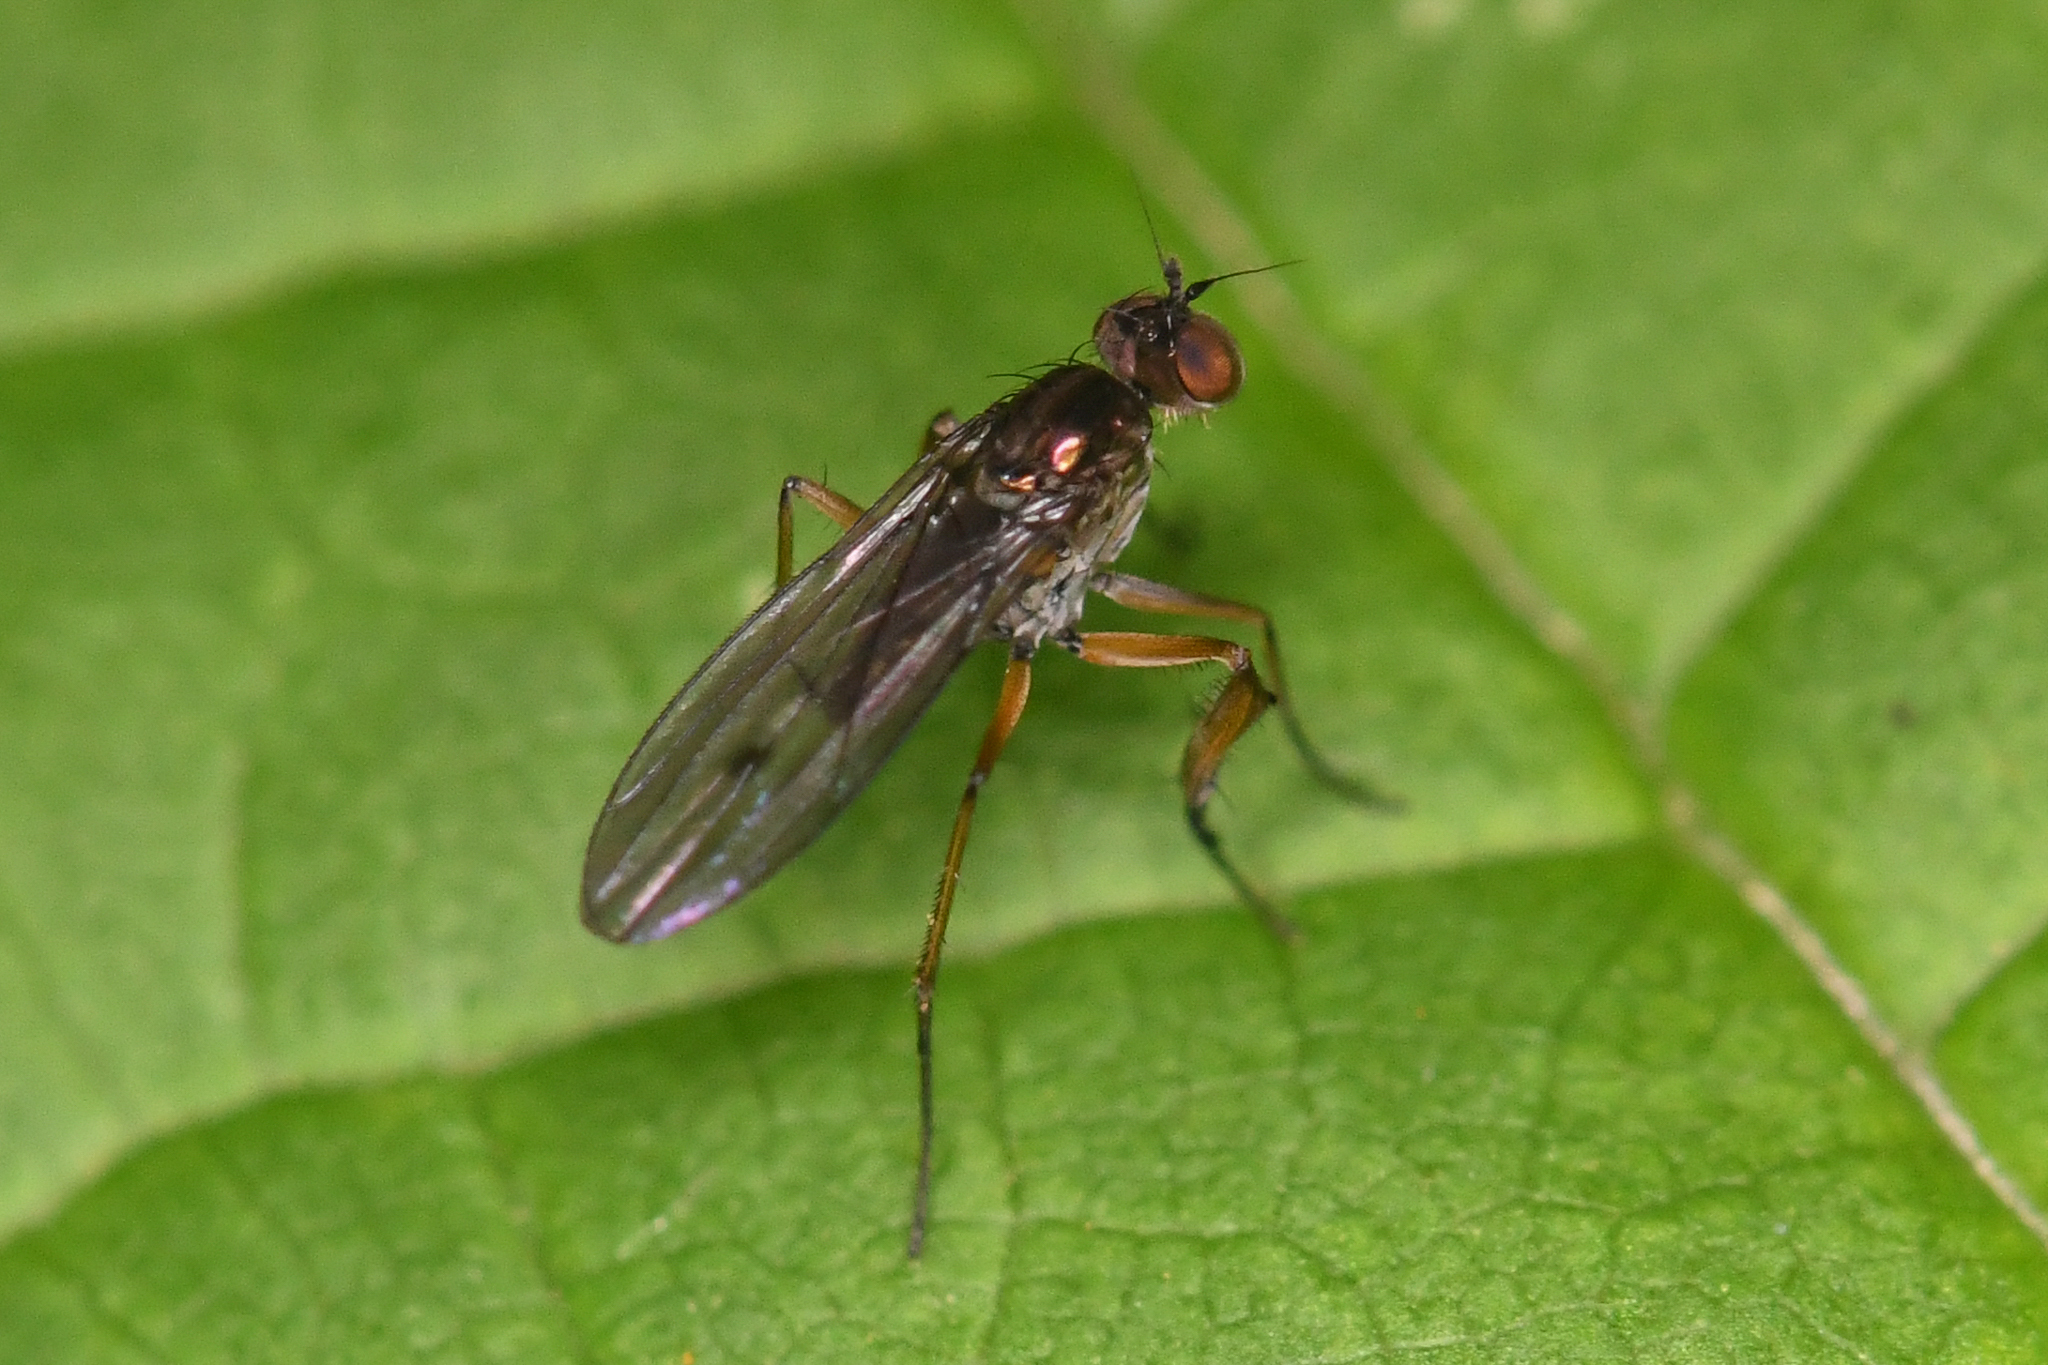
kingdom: Animalia
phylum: Arthropoda
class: Insecta
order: Diptera
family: Dolichopodidae
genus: Campsicnemus
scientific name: Campsicnemus claudicans
